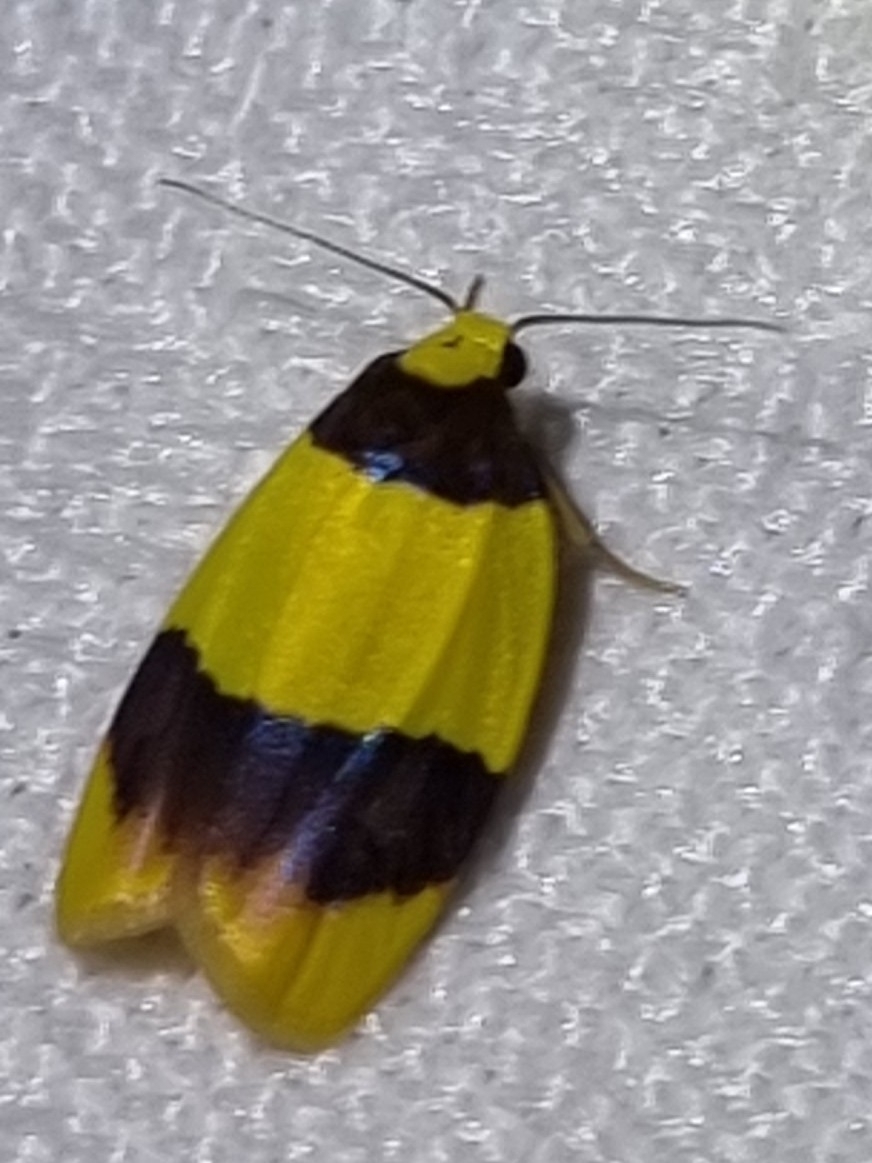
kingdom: Animalia
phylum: Arthropoda
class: Insecta
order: Lepidoptera
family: Erebidae
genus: Heterallactis
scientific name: Heterallactis euchrysa
